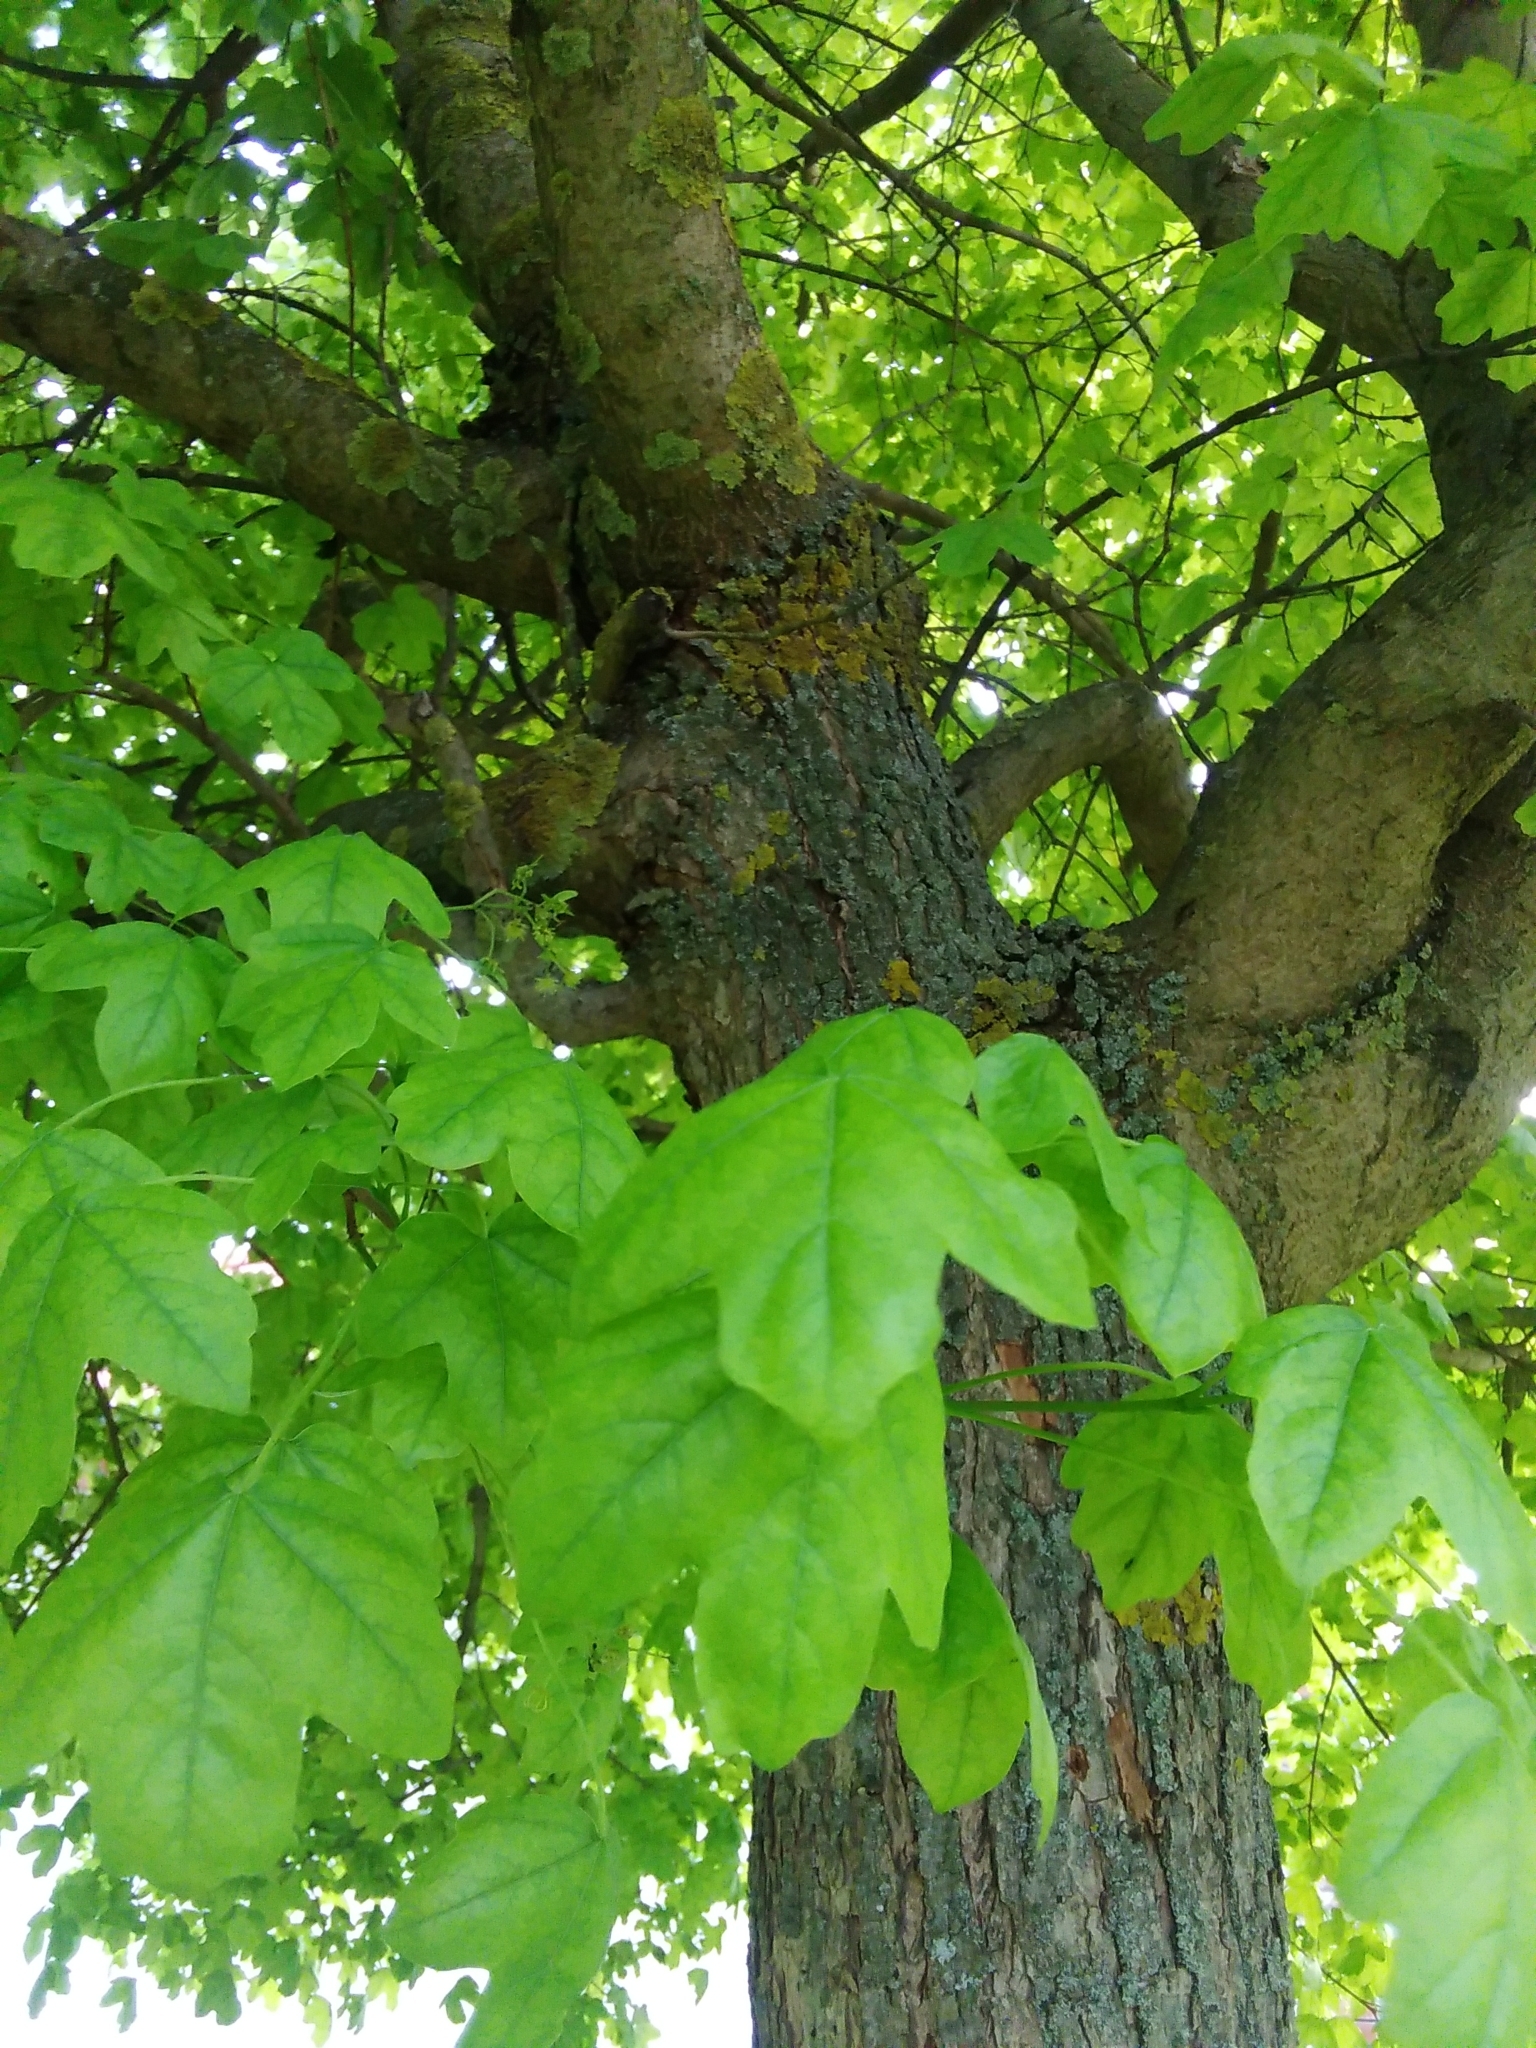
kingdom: Plantae
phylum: Tracheophyta
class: Magnoliopsida
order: Sapindales
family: Sapindaceae
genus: Acer
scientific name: Acer campestre
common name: Field maple
